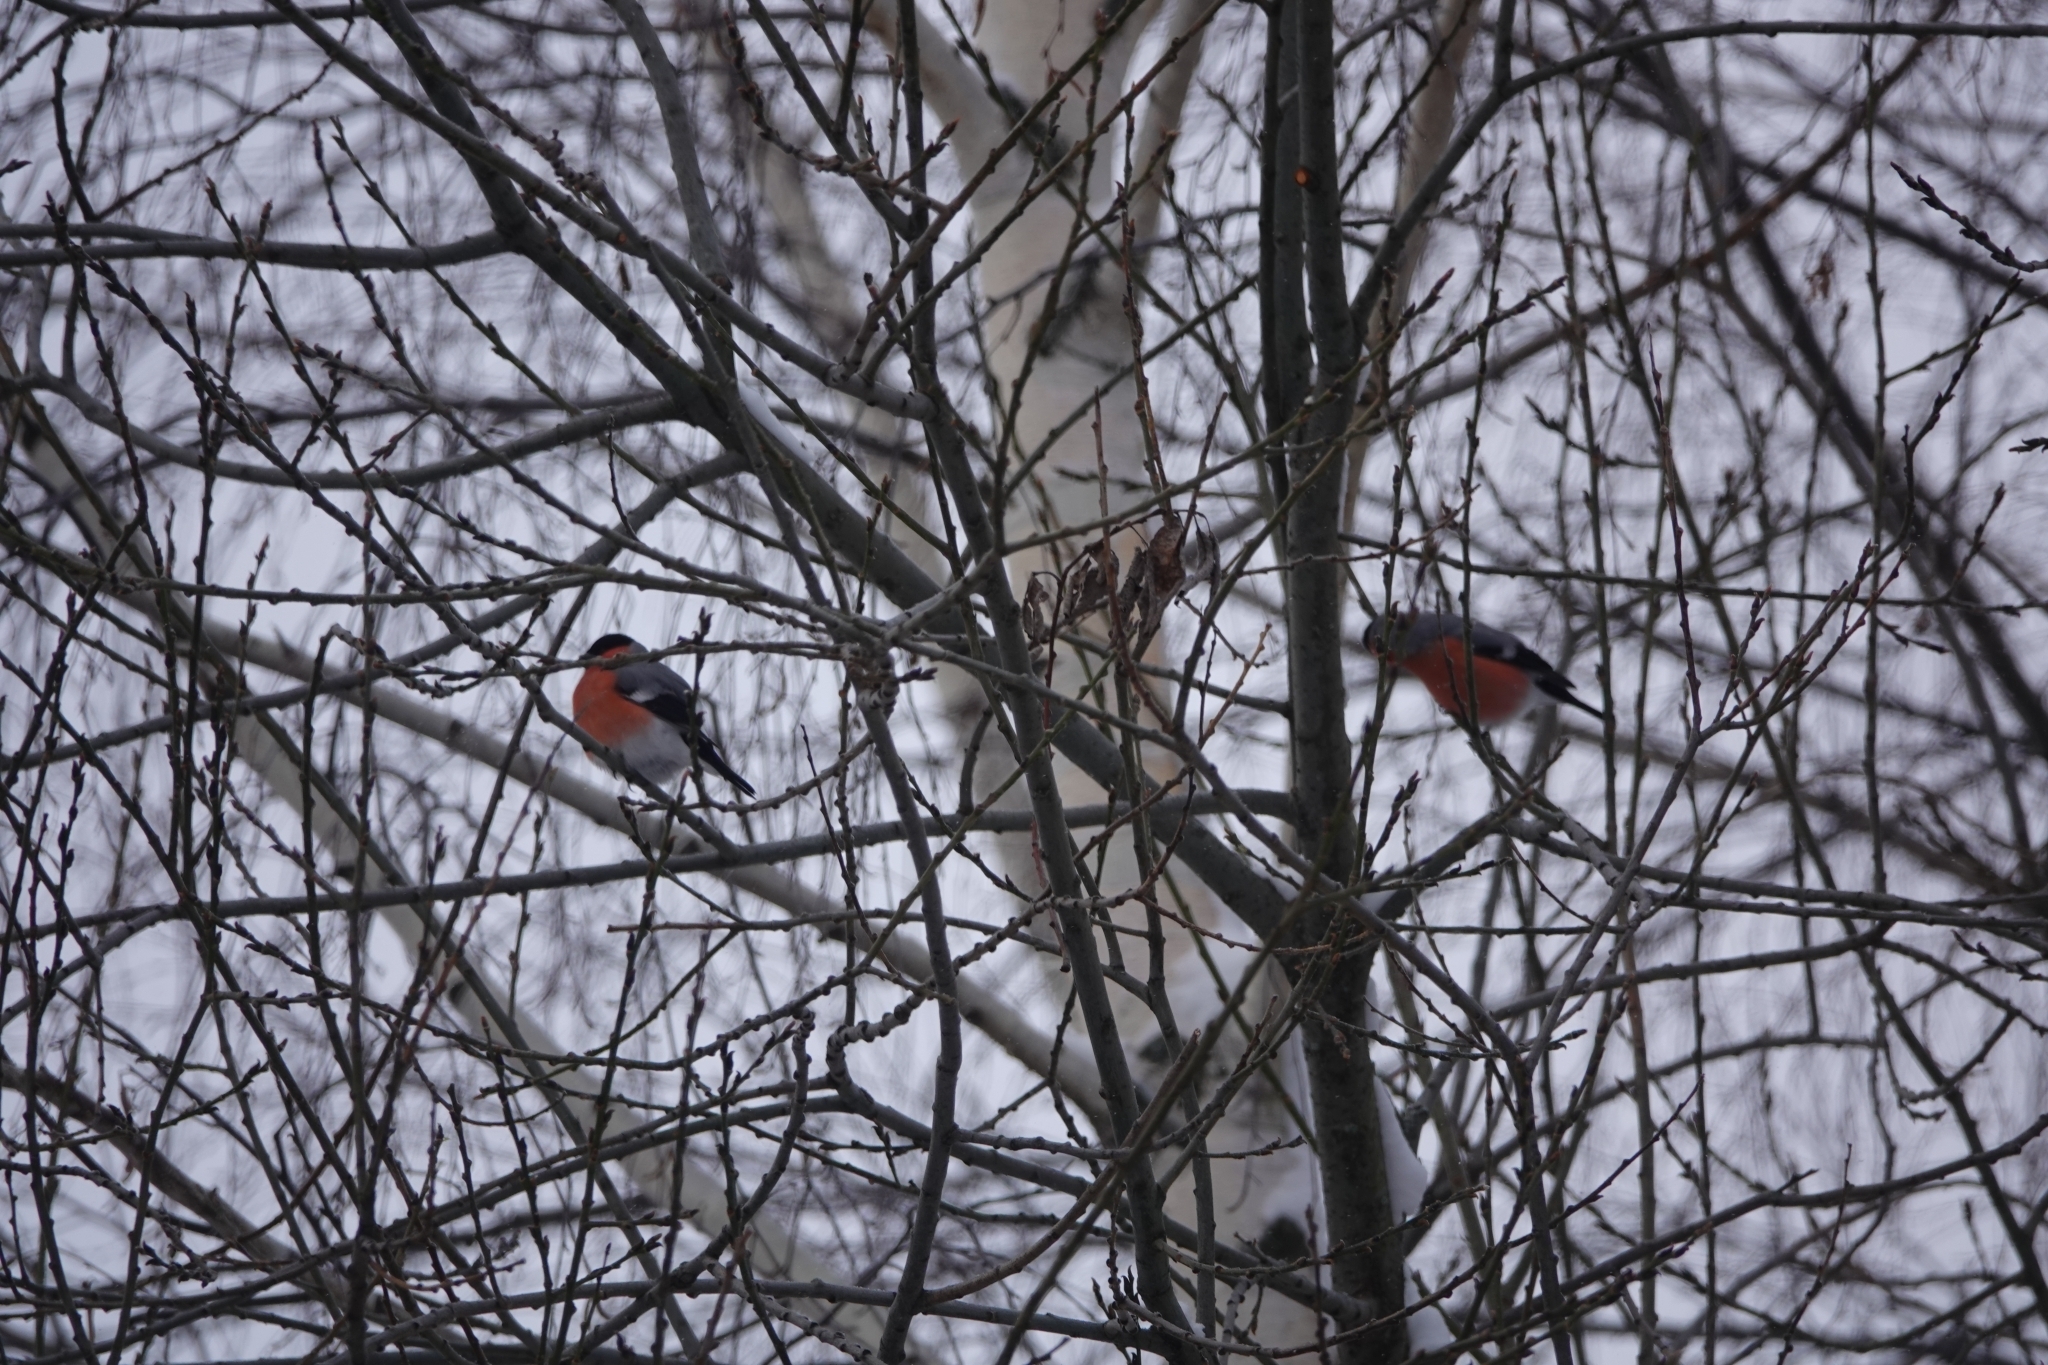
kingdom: Animalia
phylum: Chordata
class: Aves
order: Passeriformes
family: Fringillidae
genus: Pyrrhula
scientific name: Pyrrhula pyrrhula
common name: Eurasian bullfinch
